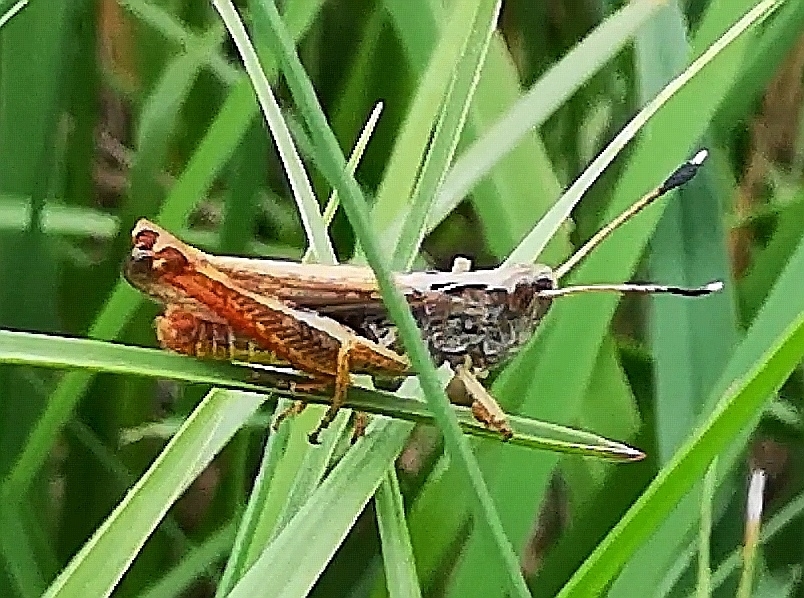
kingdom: Animalia
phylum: Arthropoda
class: Insecta
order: Orthoptera
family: Acrididae
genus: Gomphocerippus
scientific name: Gomphocerippus rufus
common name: Rufous grasshopper
